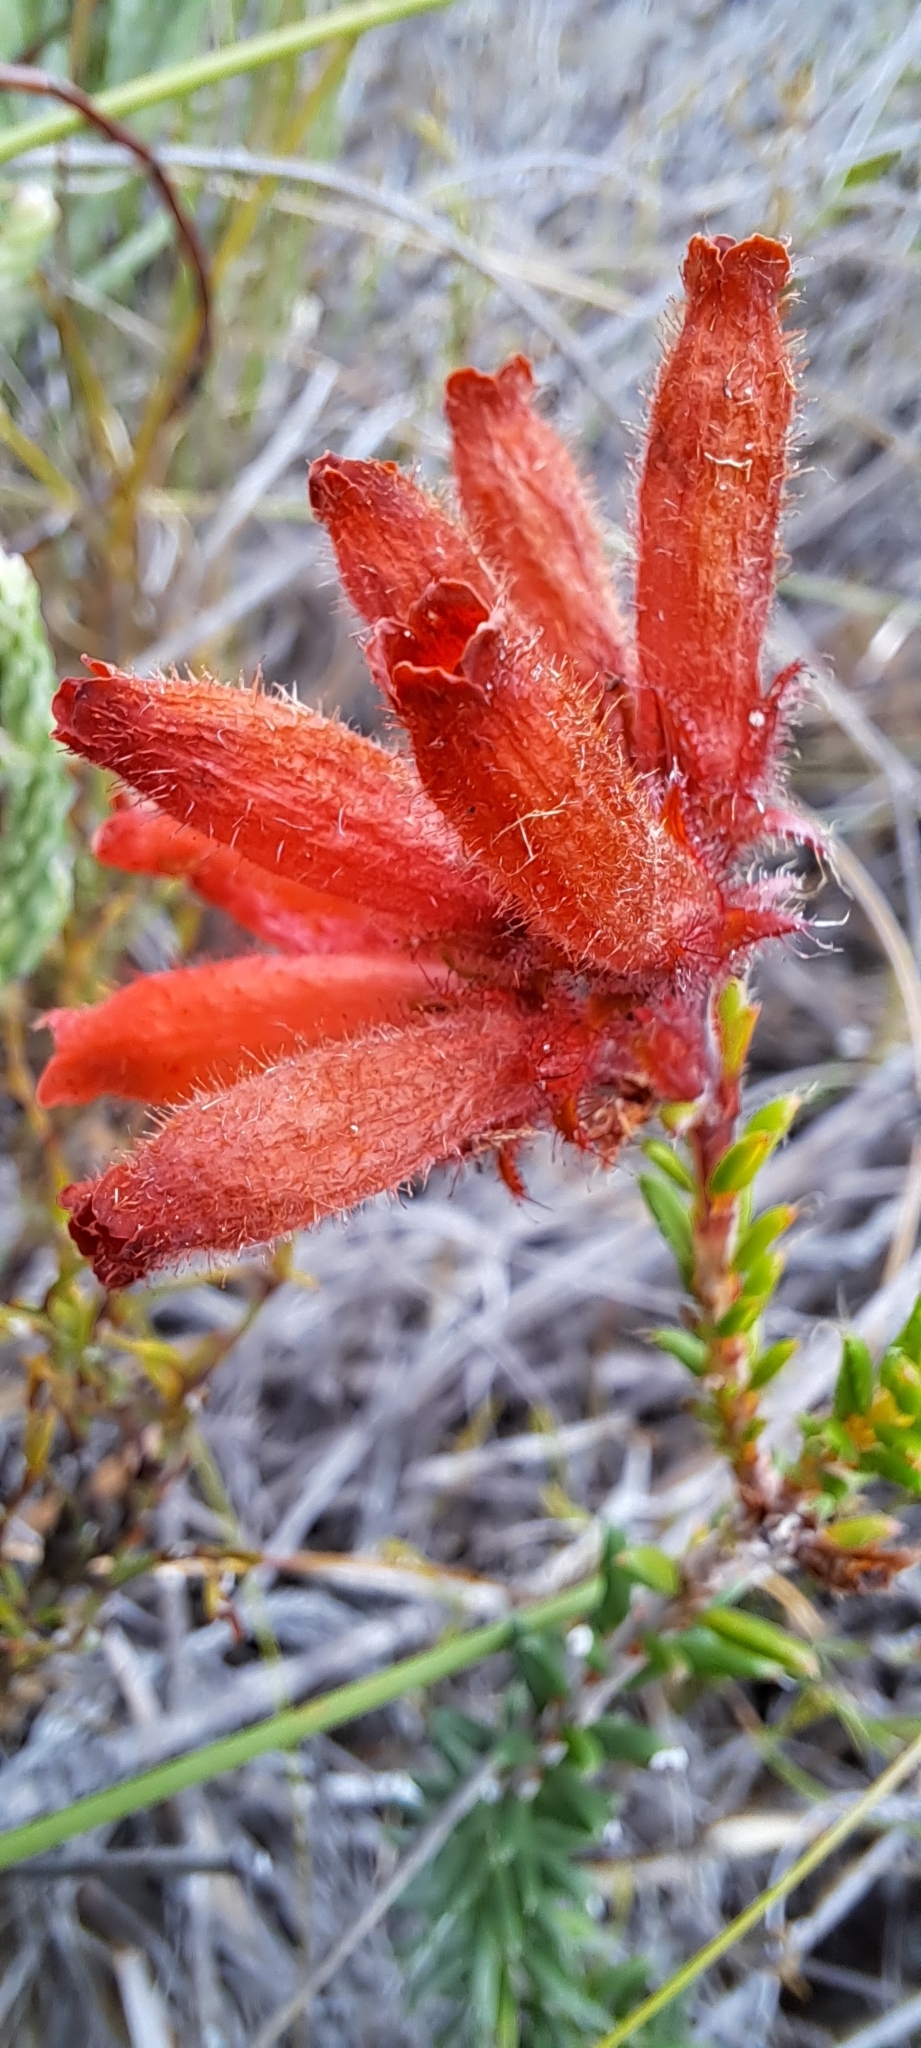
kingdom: Plantae
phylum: Tracheophyta
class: Magnoliopsida
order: Ericales
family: Ericaceae
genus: Erica
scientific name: Erica cerinthoides
